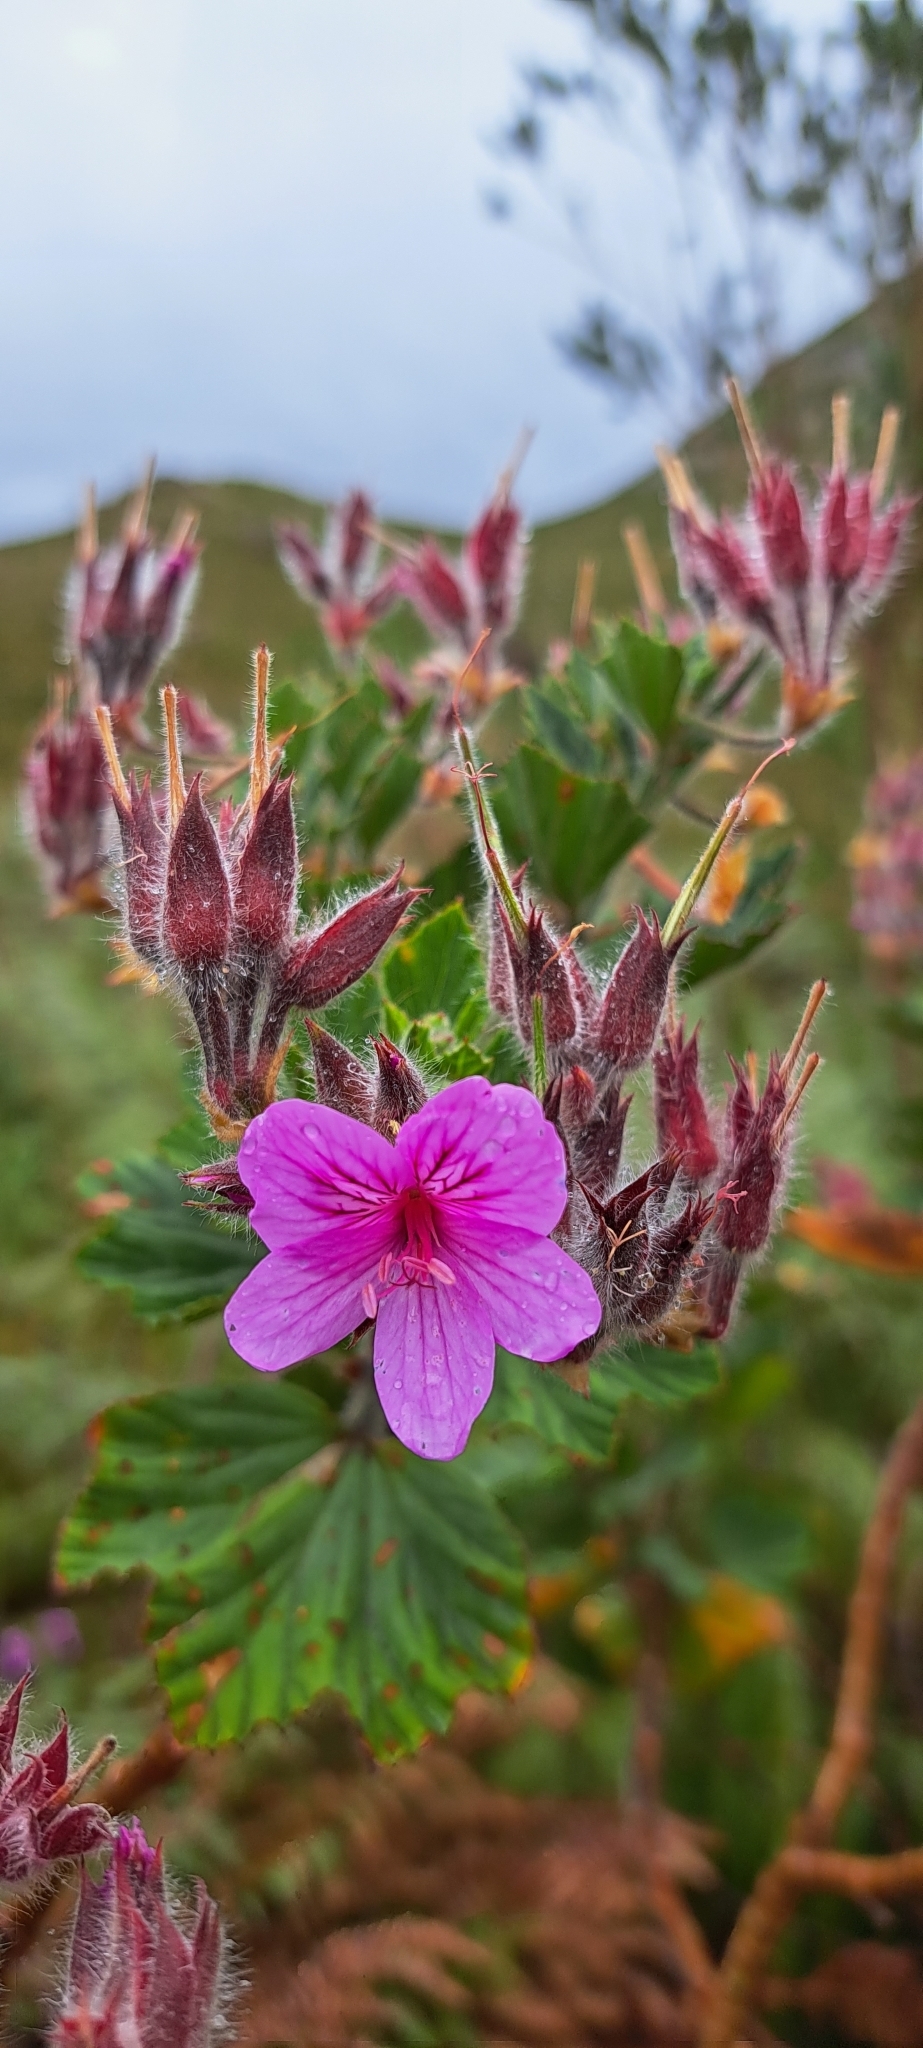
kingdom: Plantae
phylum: Tracheophyta
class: Magnoliopsida
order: Geraniales
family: Geraniaceae
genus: Pelargonium
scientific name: Pelargonium cucullatum
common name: Tree pelargonium
